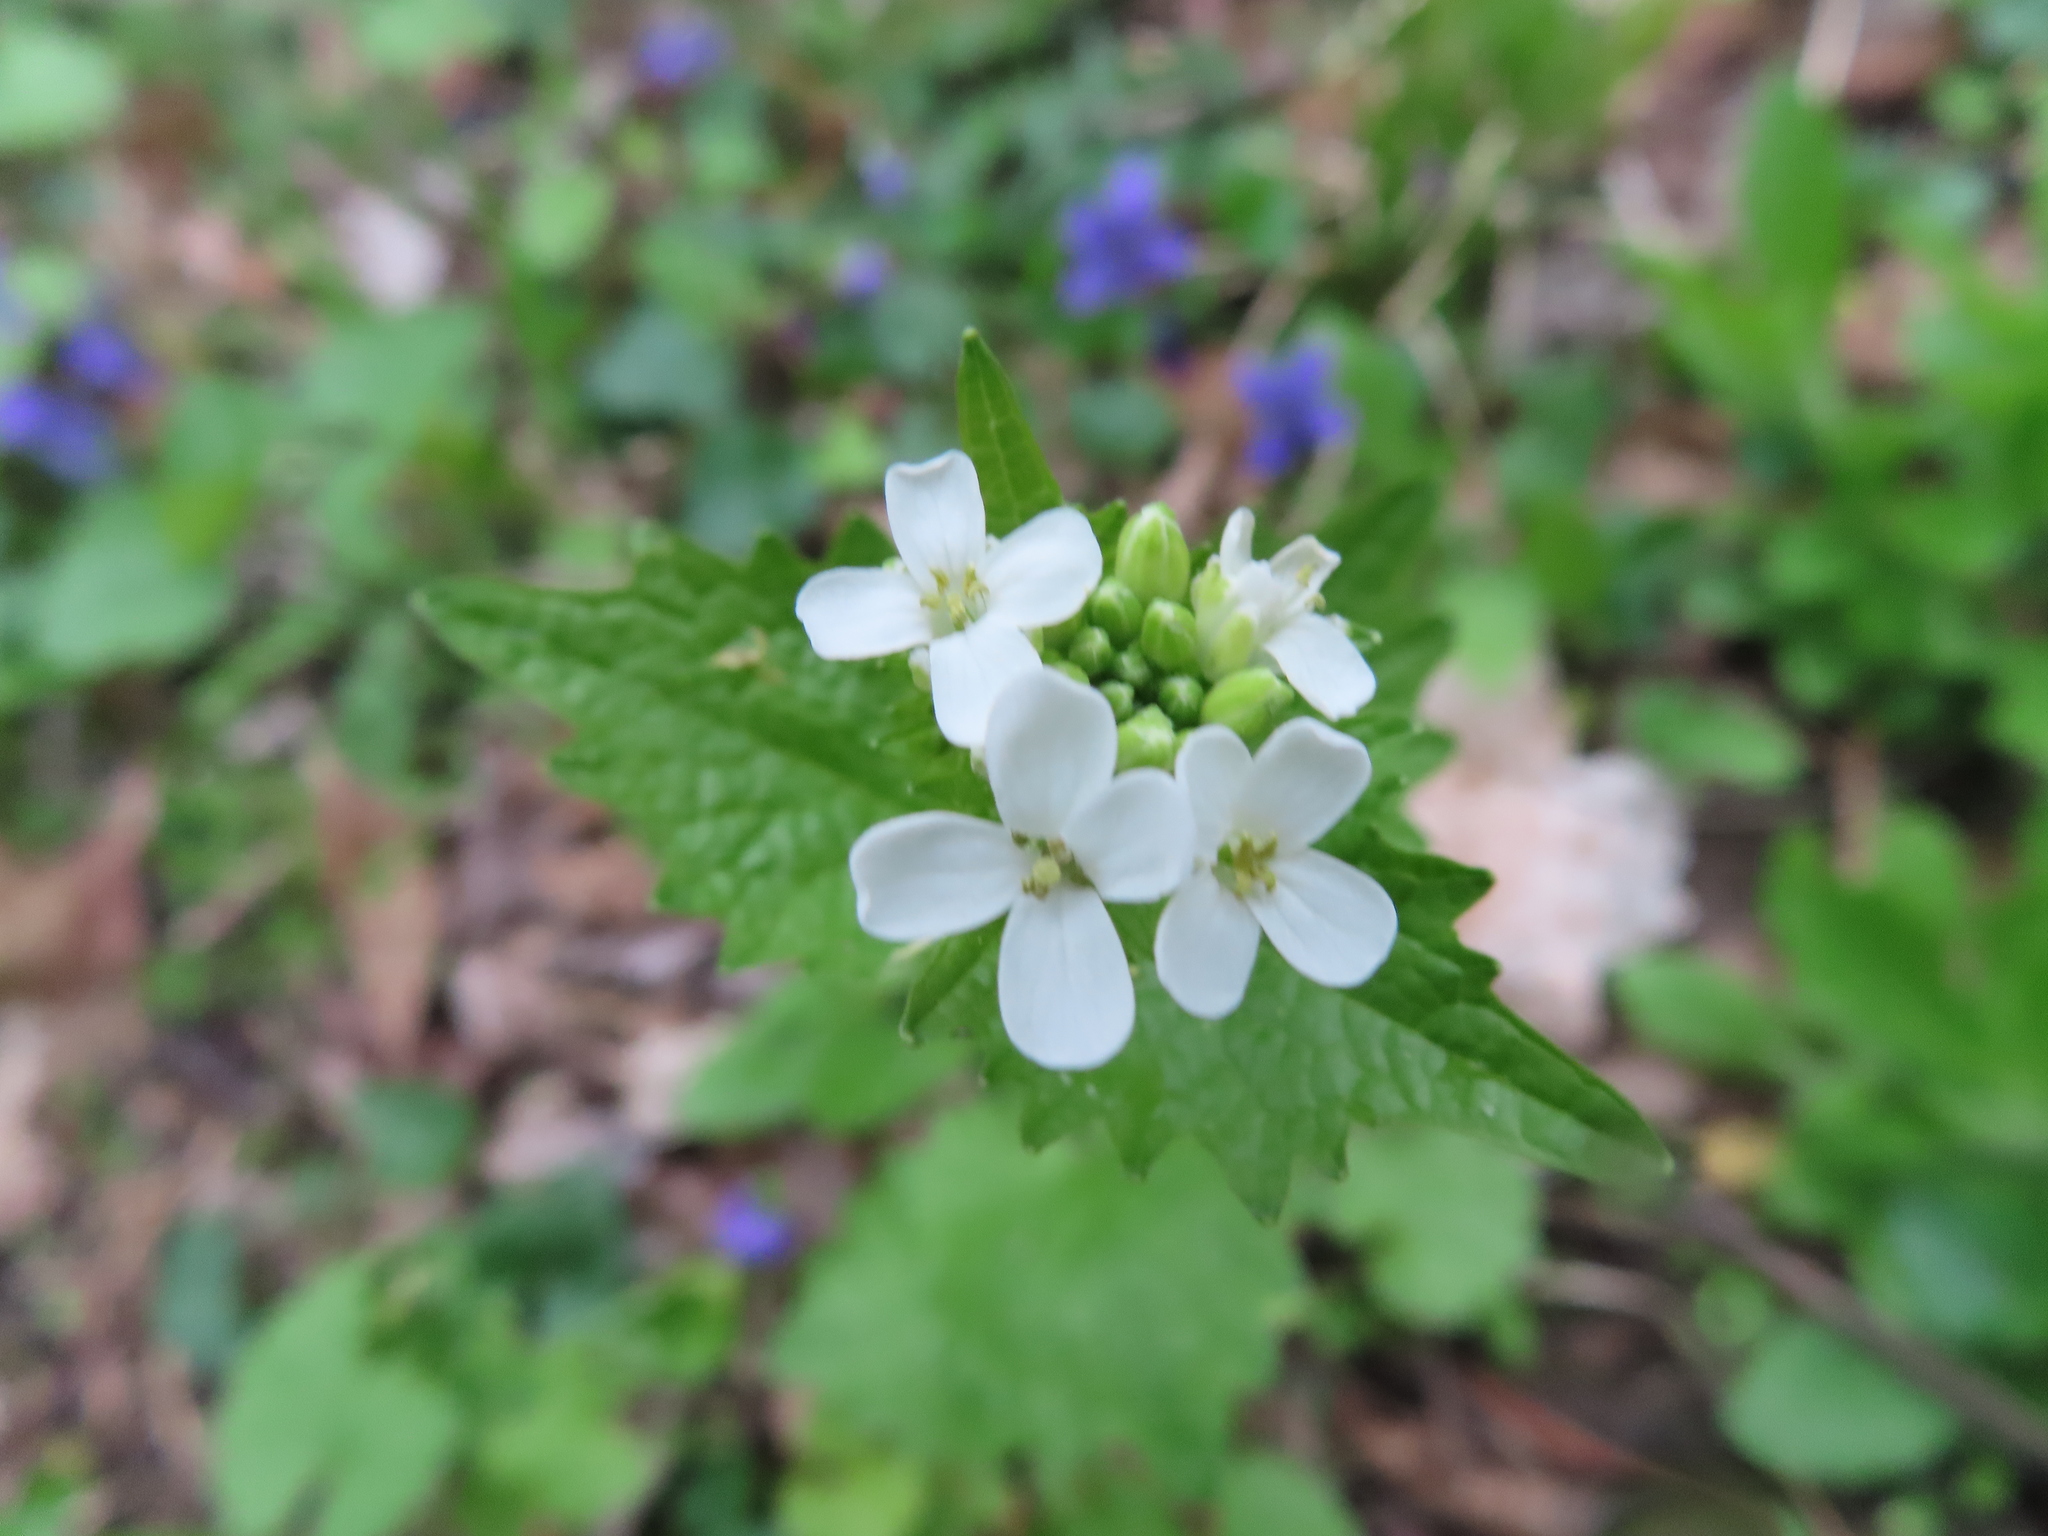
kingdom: Plantae
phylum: Tracheophyta
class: Magnoliopsida
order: Brassicales
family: Brassicaceae
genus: Alliaria
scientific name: Alliaria petiolata
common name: Garlic mustard
